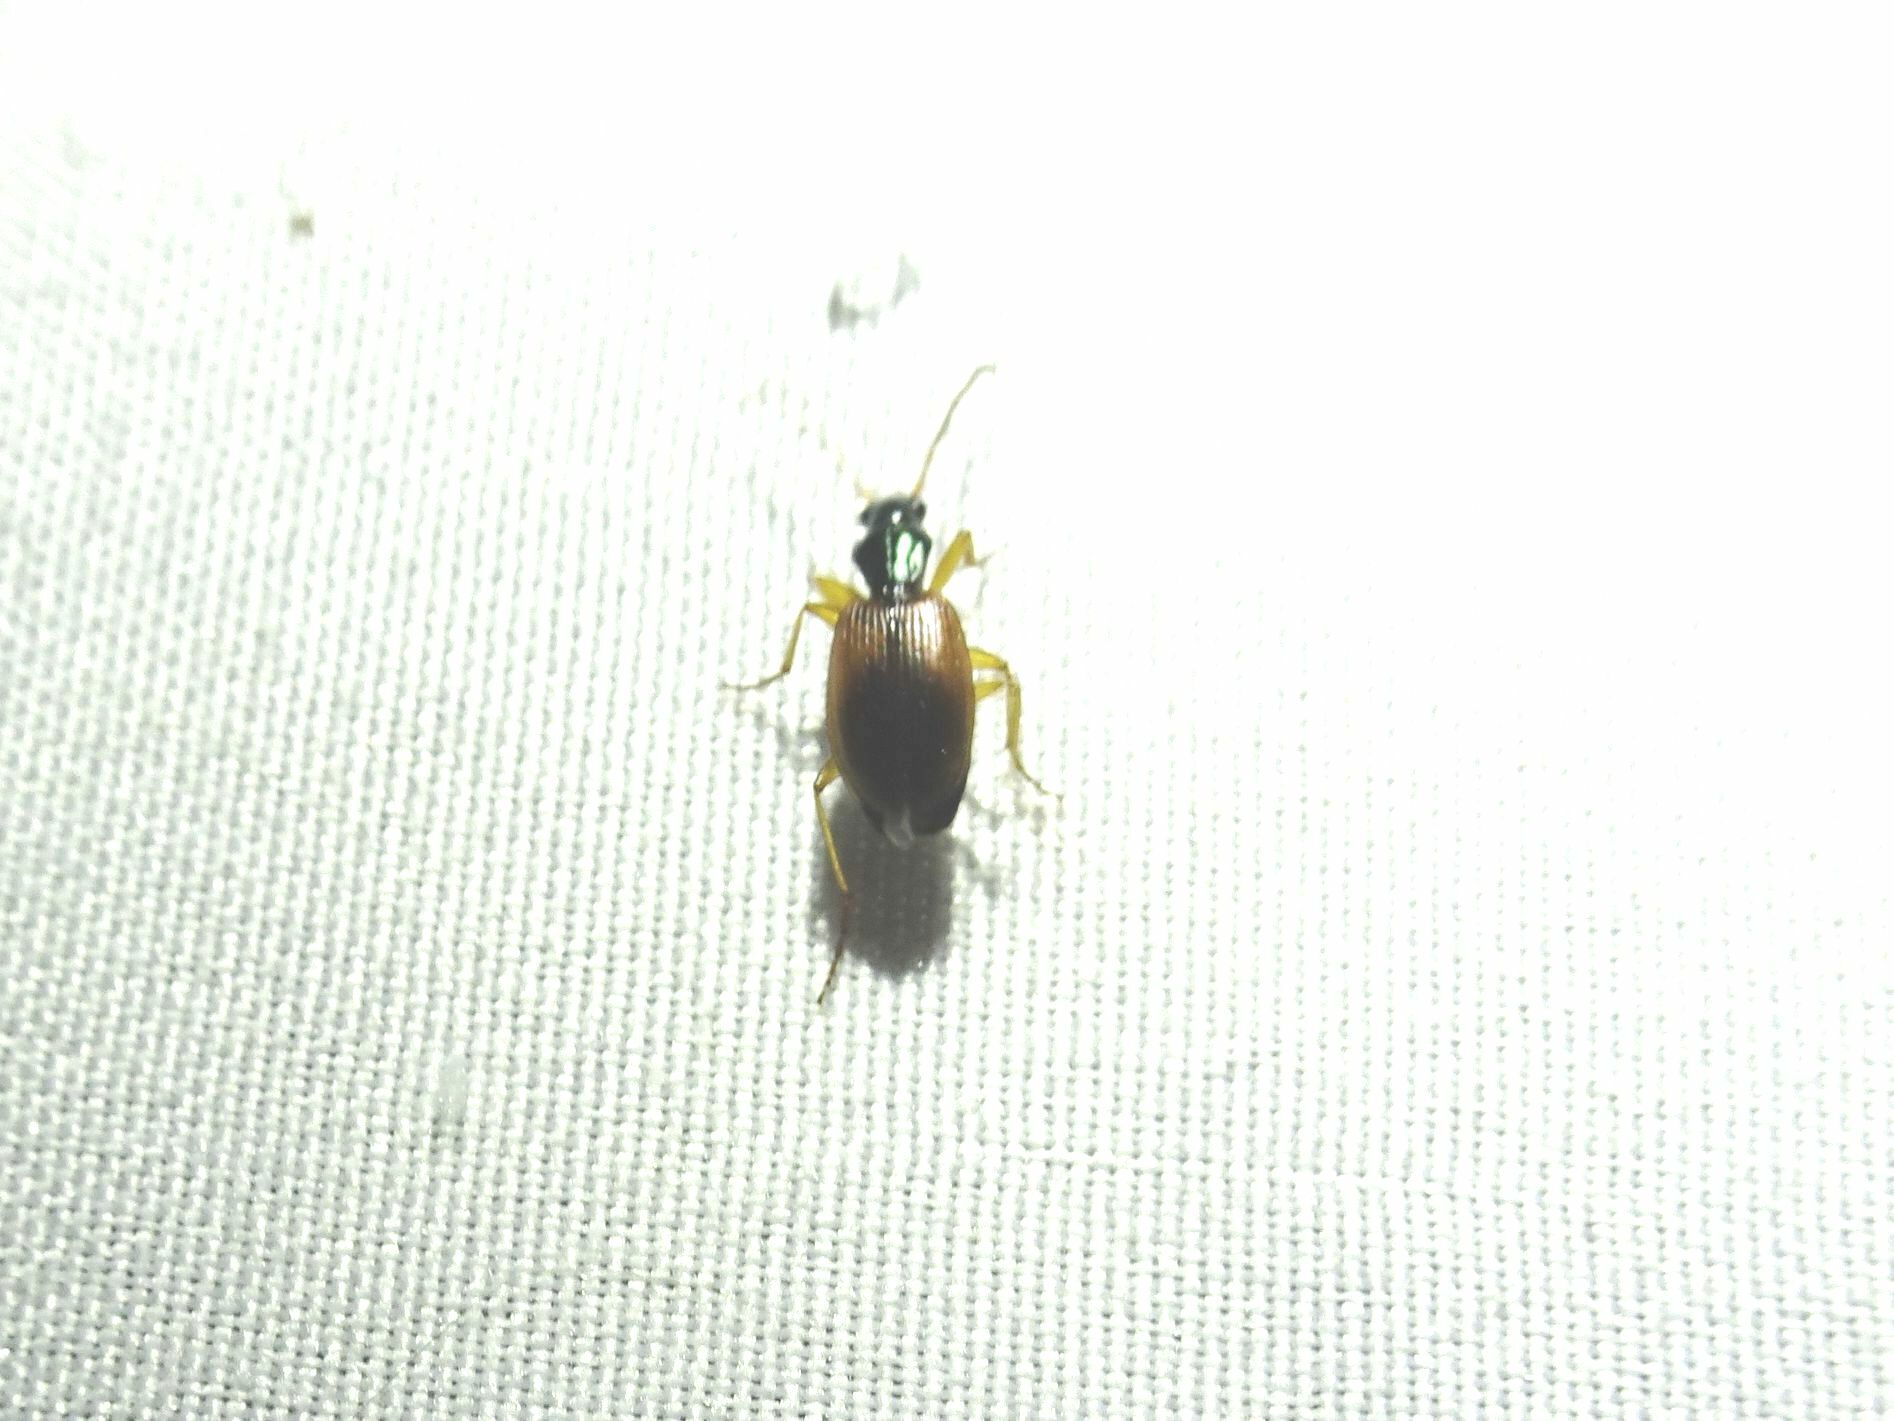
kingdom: Animalia
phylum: Arthropoda
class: Insecta
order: Coleoptera
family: Carabidae
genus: Anchomenus
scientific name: Anchomenus dorsalis
